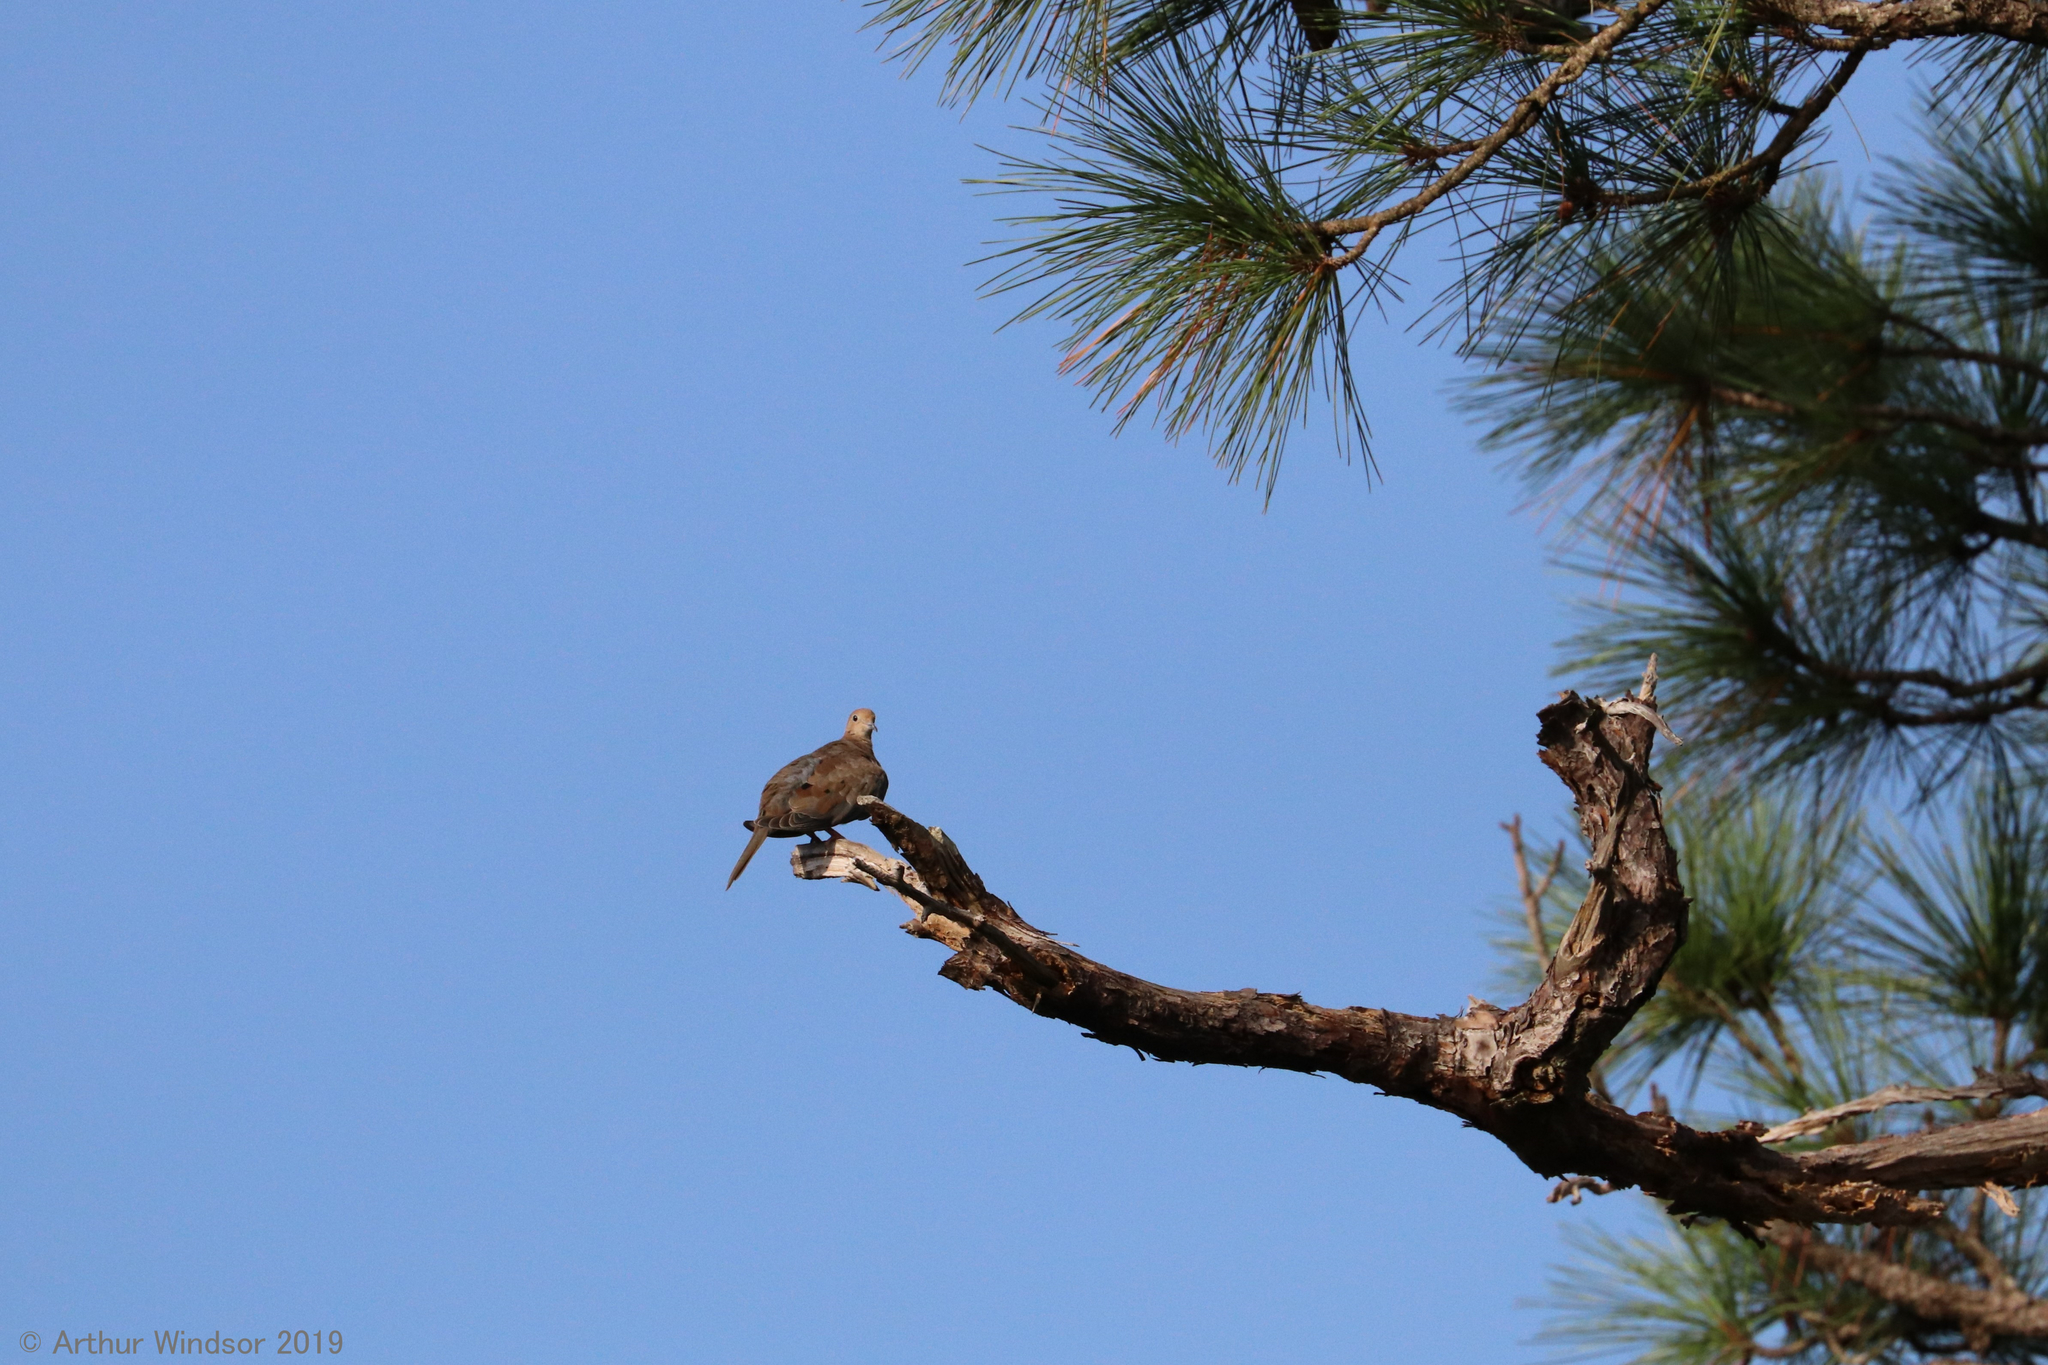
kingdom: Animalia
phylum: Chordata
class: Aves
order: Columbiformes
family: Columbidae
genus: Zenaida
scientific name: Zenaida macroura
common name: Mourning dove
